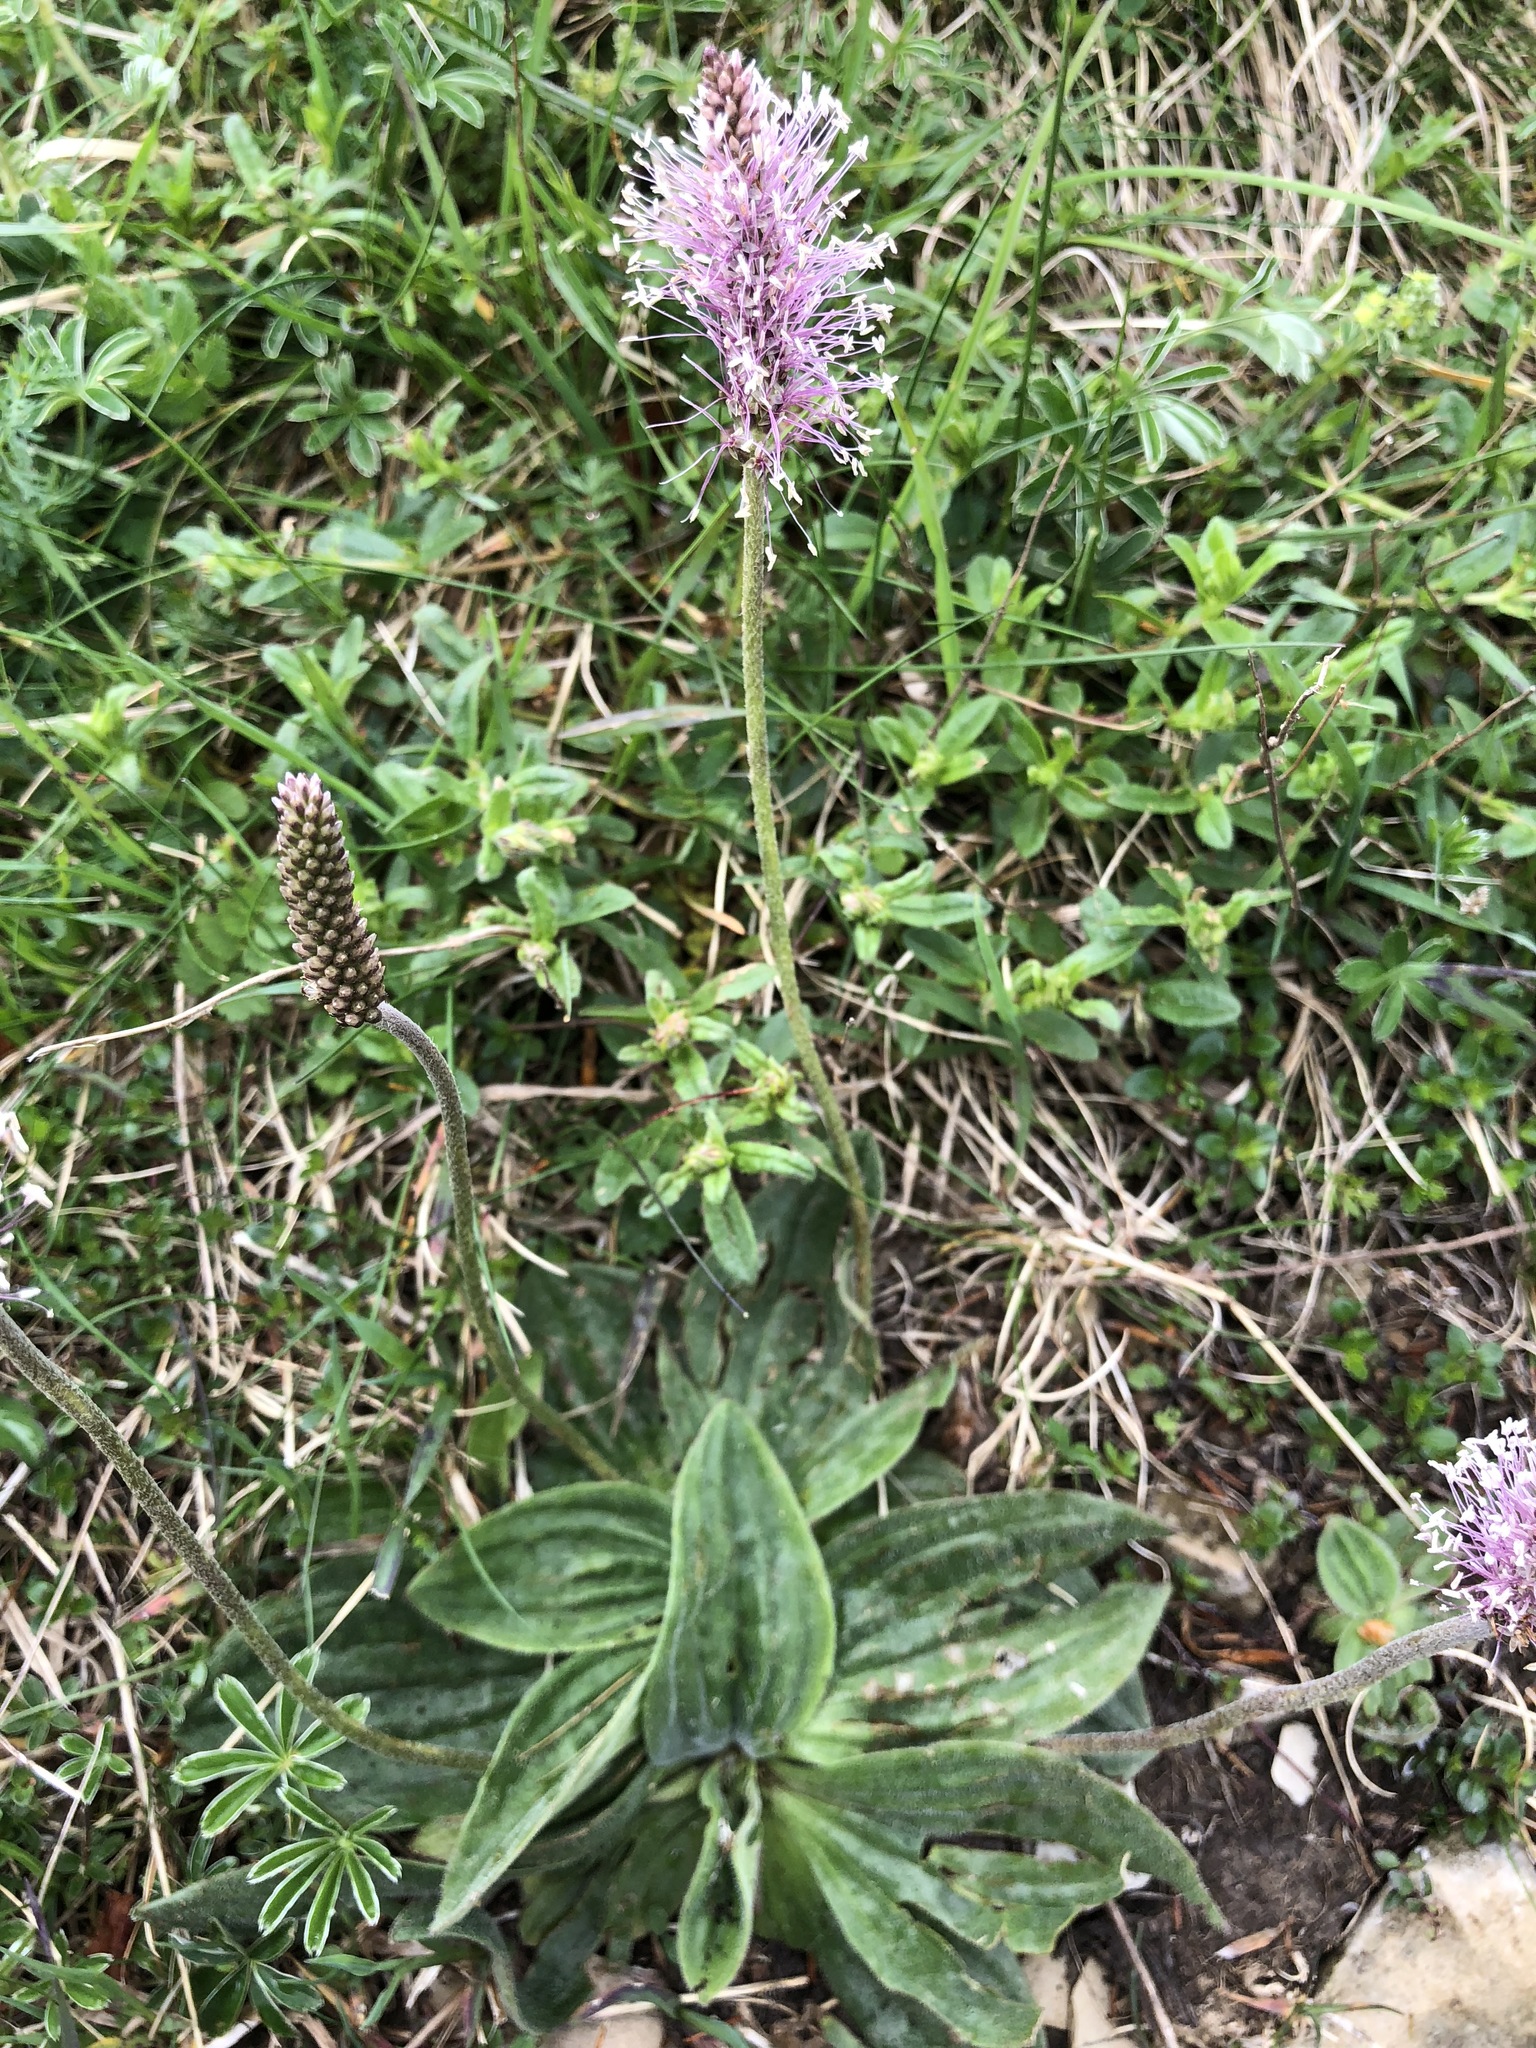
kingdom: Plantae
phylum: Tracheophyta
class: Magnoliopsida
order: Lamiales
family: Plantaginaceae
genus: Plantago
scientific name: Plantago media
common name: Hoary plantain
